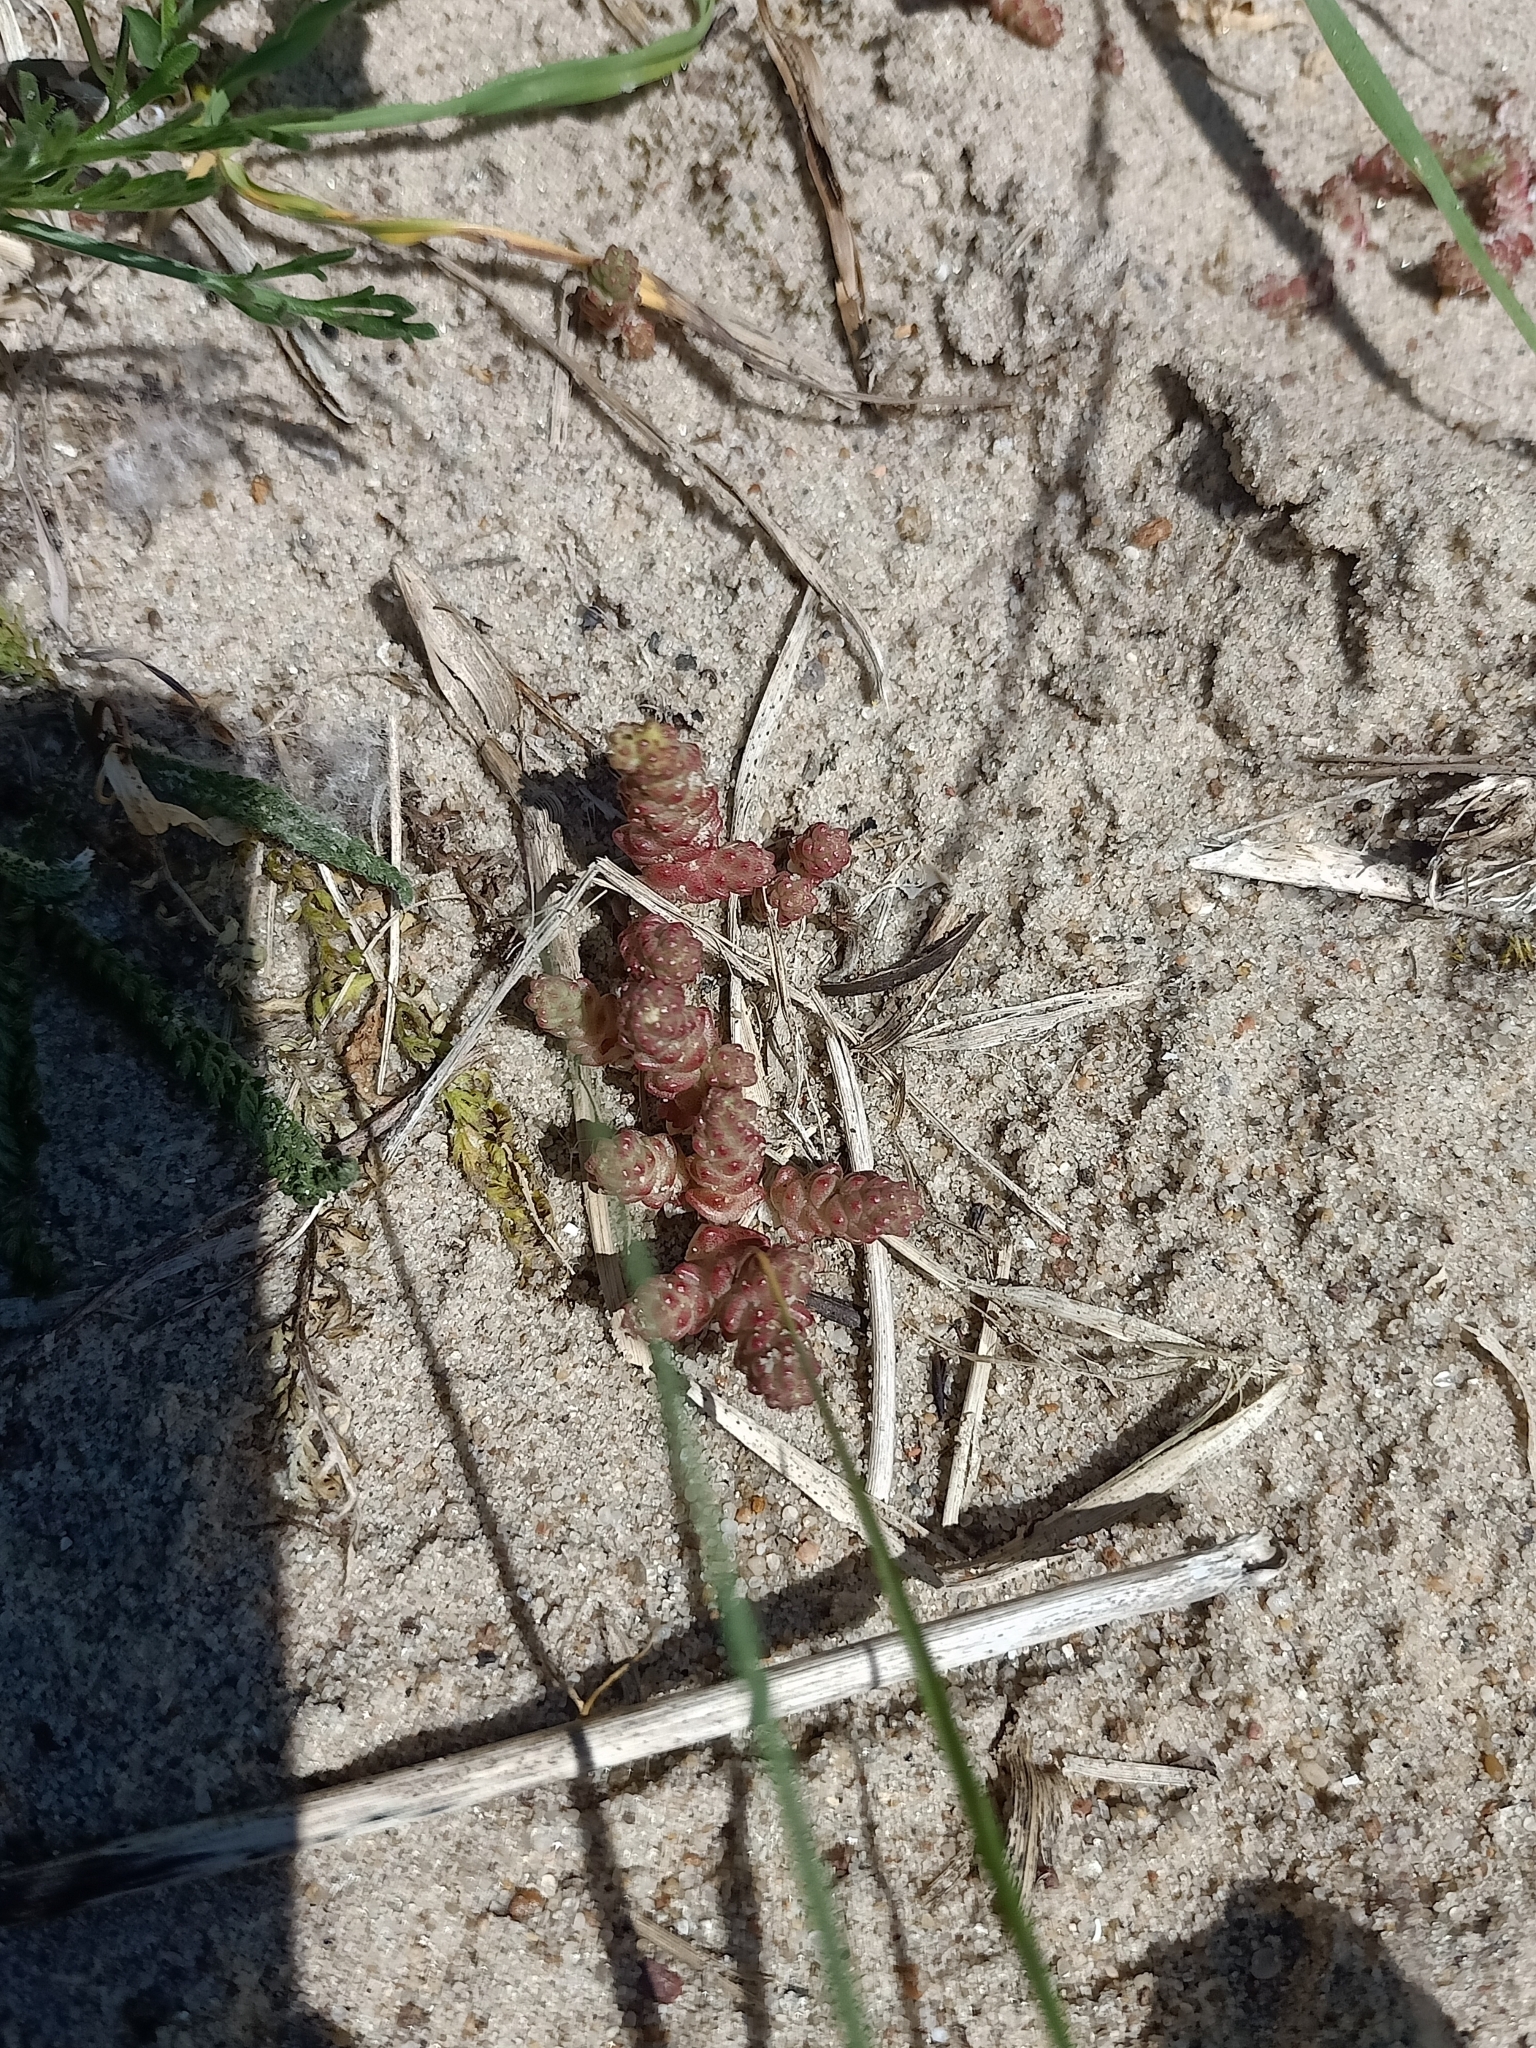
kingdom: Plantae
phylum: Tracheophyta
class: Magnoliopsida
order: Saxifragales
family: Crassulaceae
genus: Sedum
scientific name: Sedum acre
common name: Biting stonecrop
